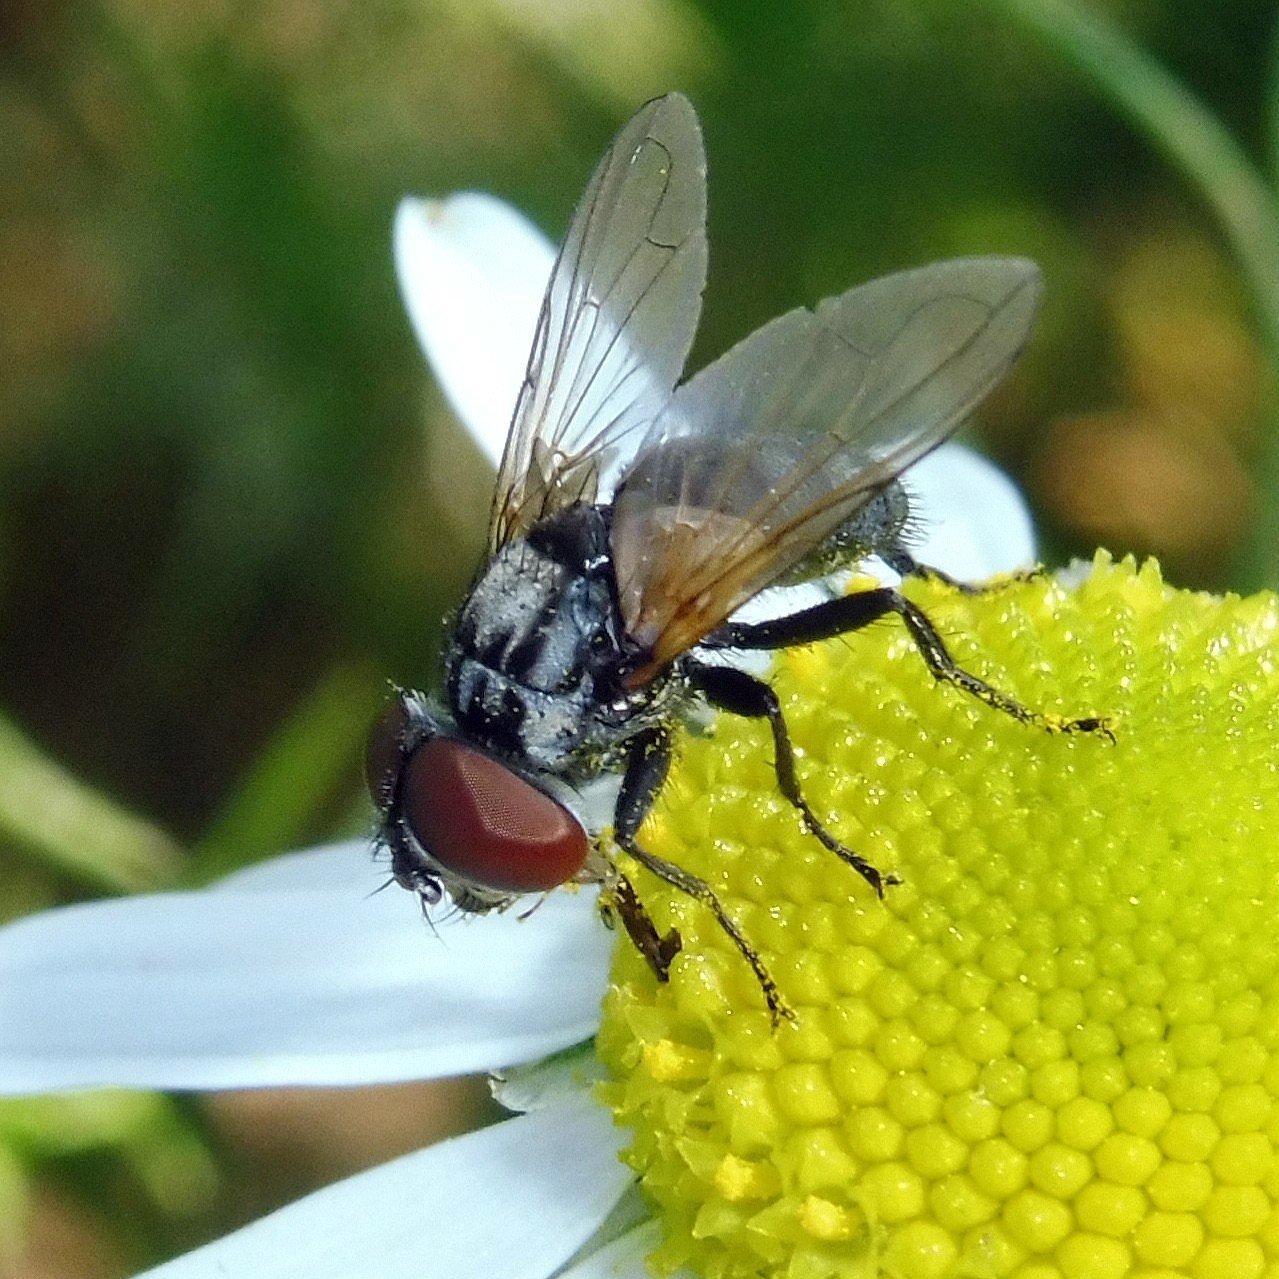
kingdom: Animalia
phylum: Arthropoda
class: Insecta
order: Diptera
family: Tachinidae
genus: Phasia
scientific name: Phasia obesa
